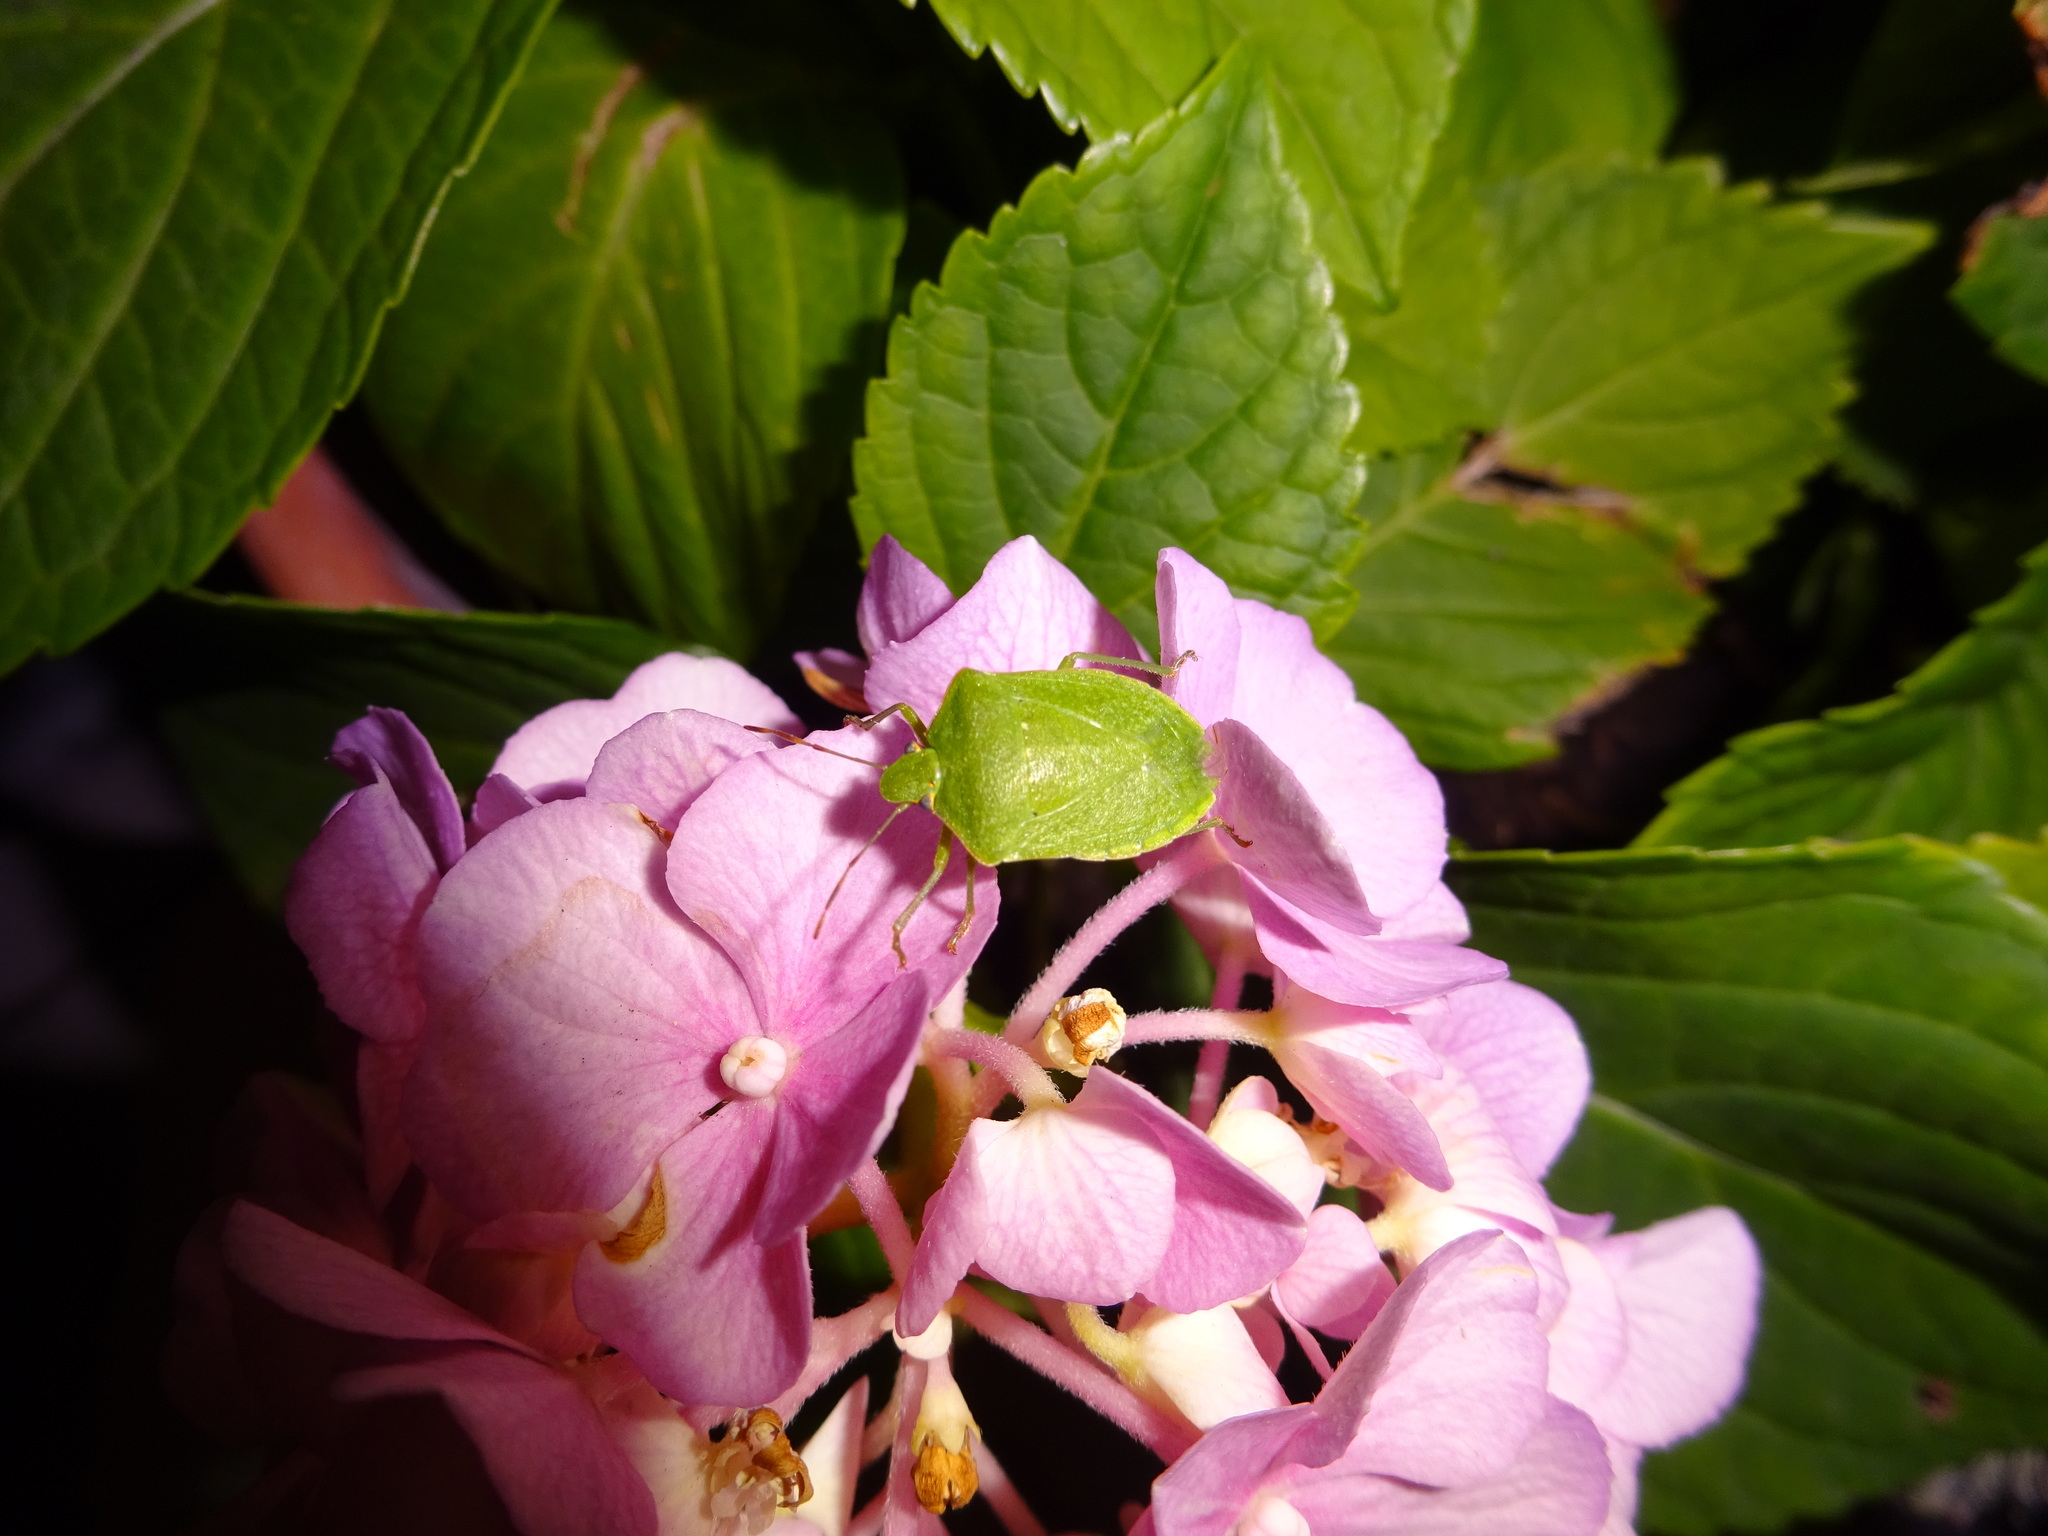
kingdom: Animalia
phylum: Arthropoda
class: Insecta
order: Hemiptera
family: Pentatomidae
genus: Nezara
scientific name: Nezara viridula
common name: Southern green stink bug
